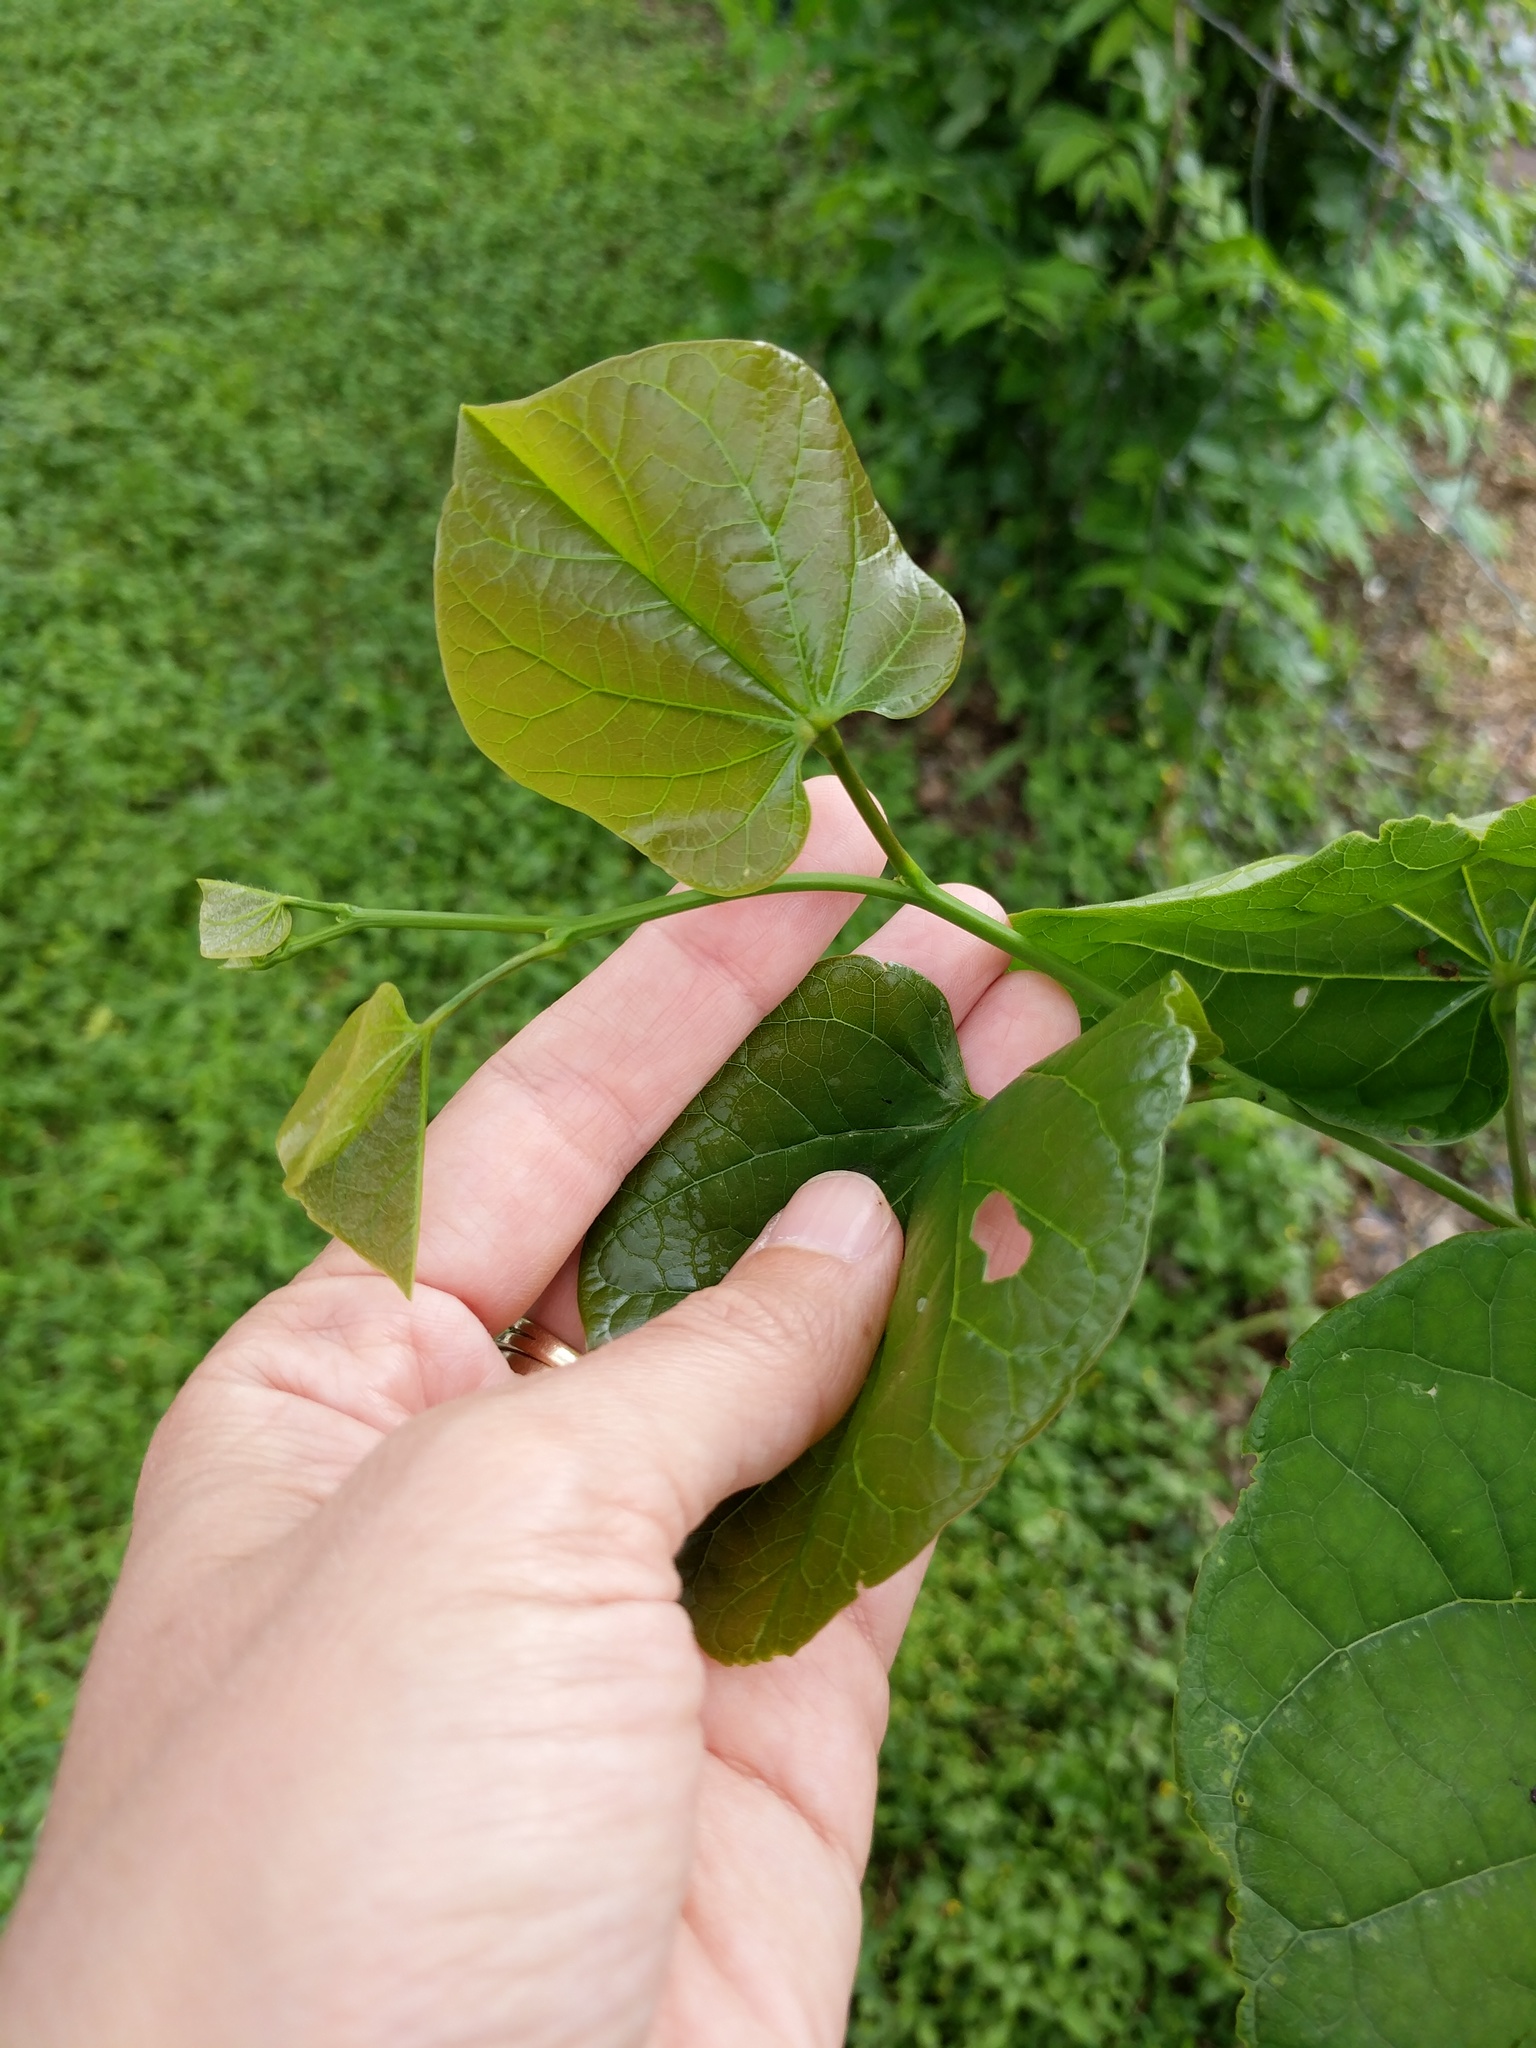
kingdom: Plantae
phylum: Tracheophyta
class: Magnoliopsida
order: Fabales
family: Fabaceae
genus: Cercis
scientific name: Cercis canadensis
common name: Eastern redbud
